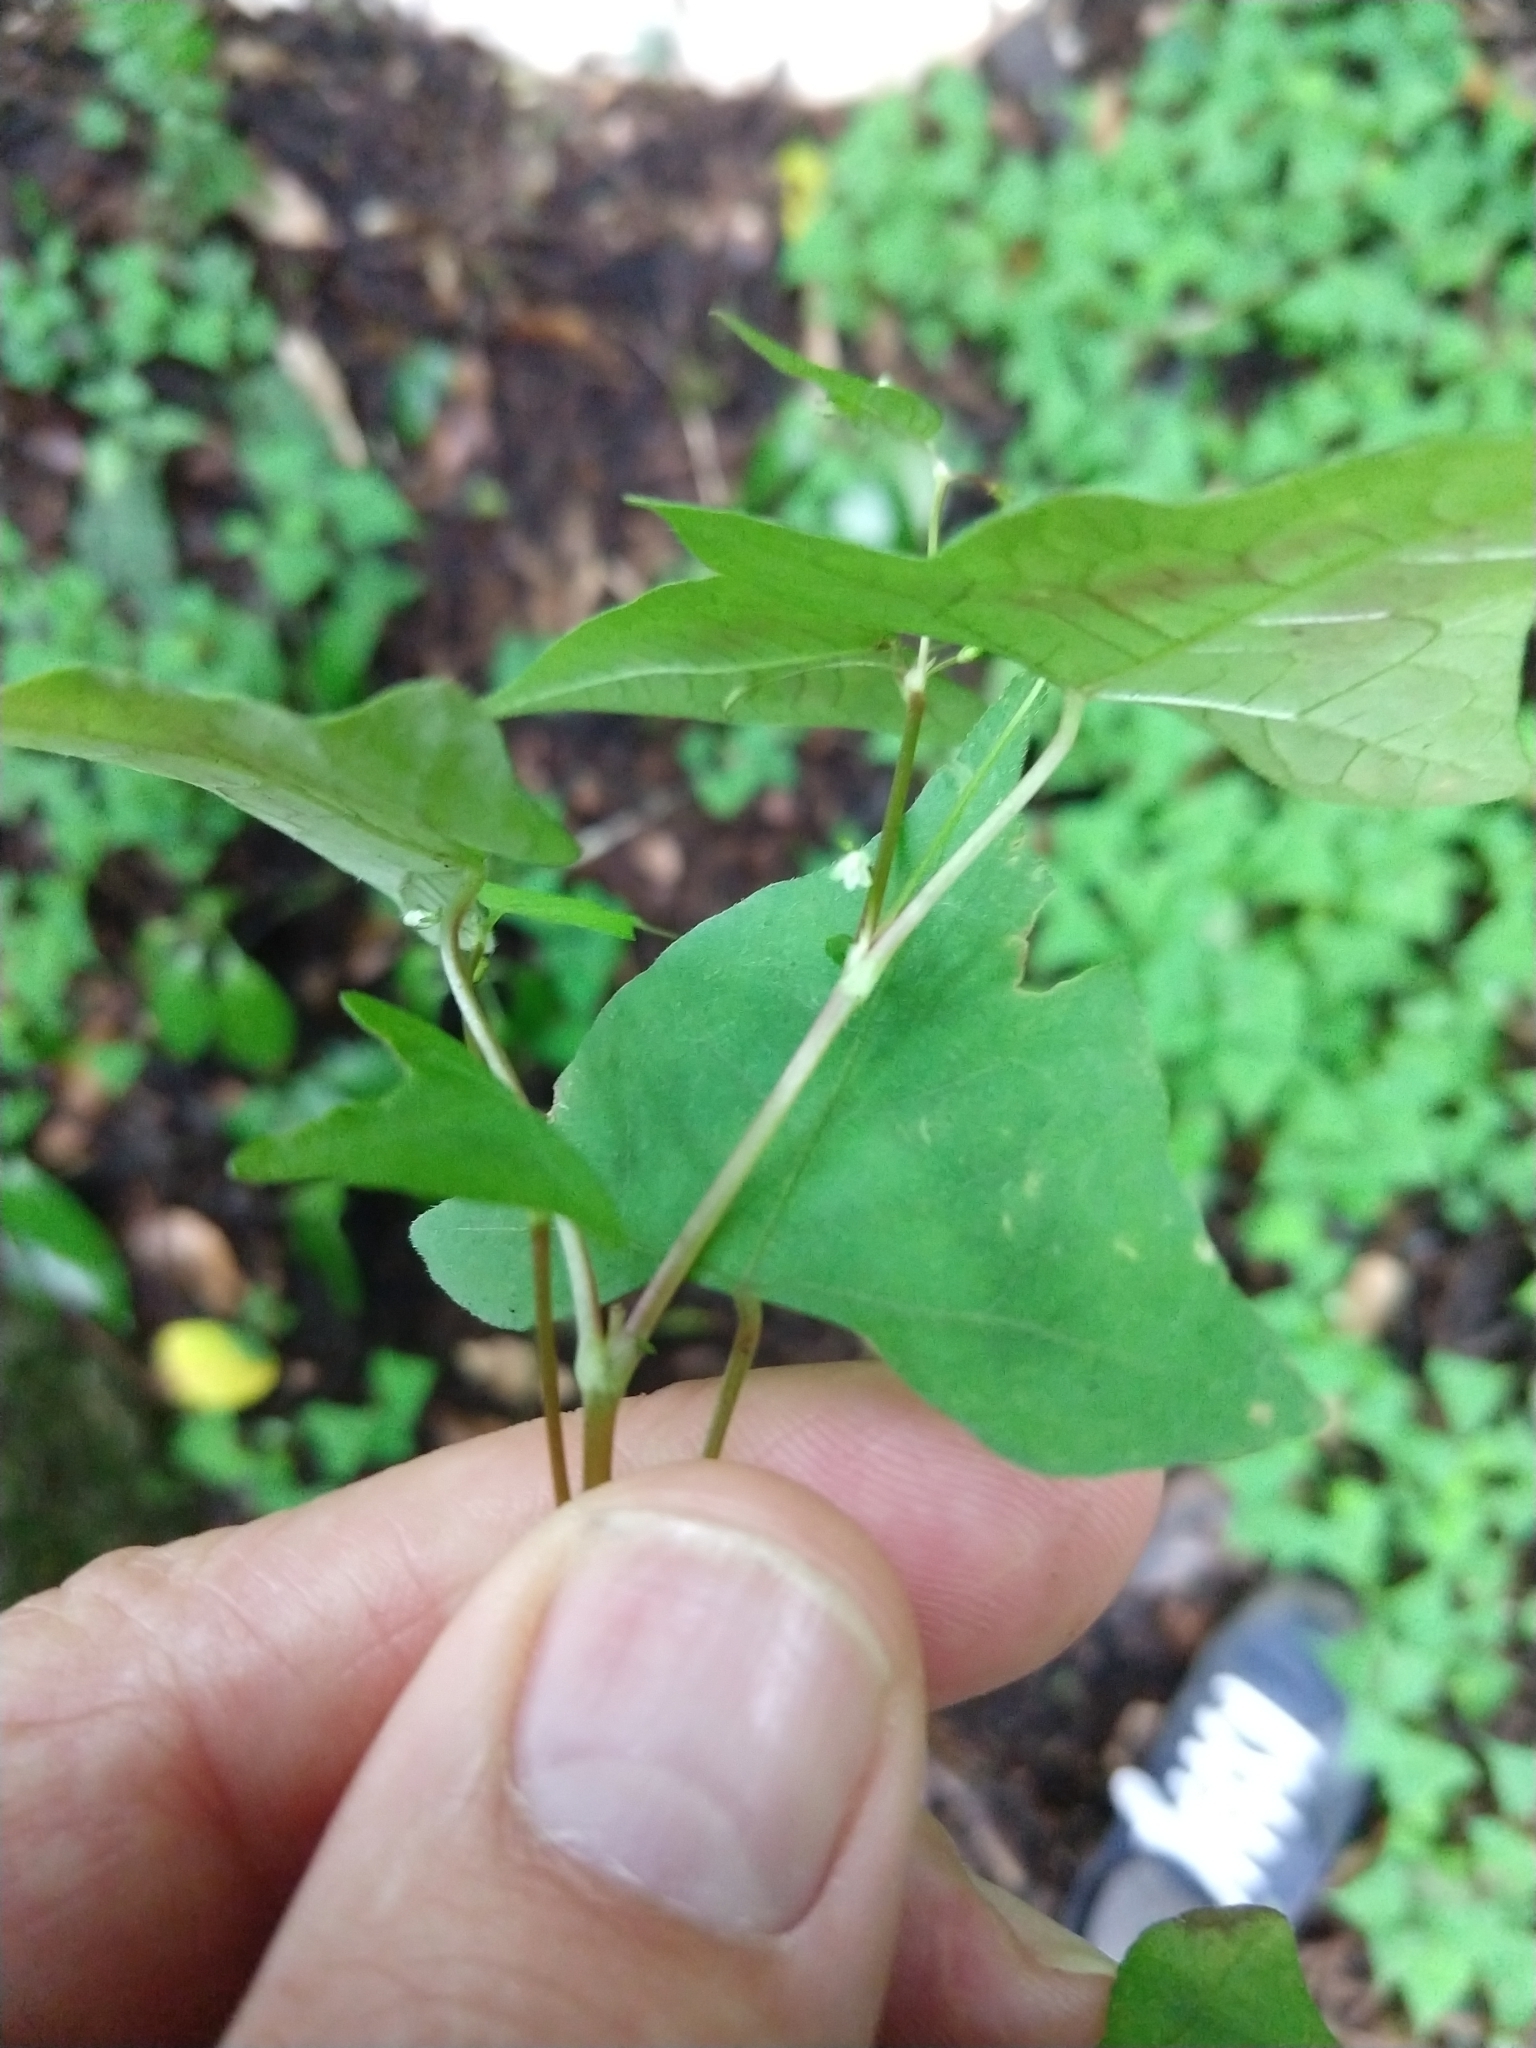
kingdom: Plantae
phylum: Tracheophyta
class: Magnoliopsida
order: Caryophyllales
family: Polygonaceae
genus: Persicaria
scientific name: Persicaria debilis
